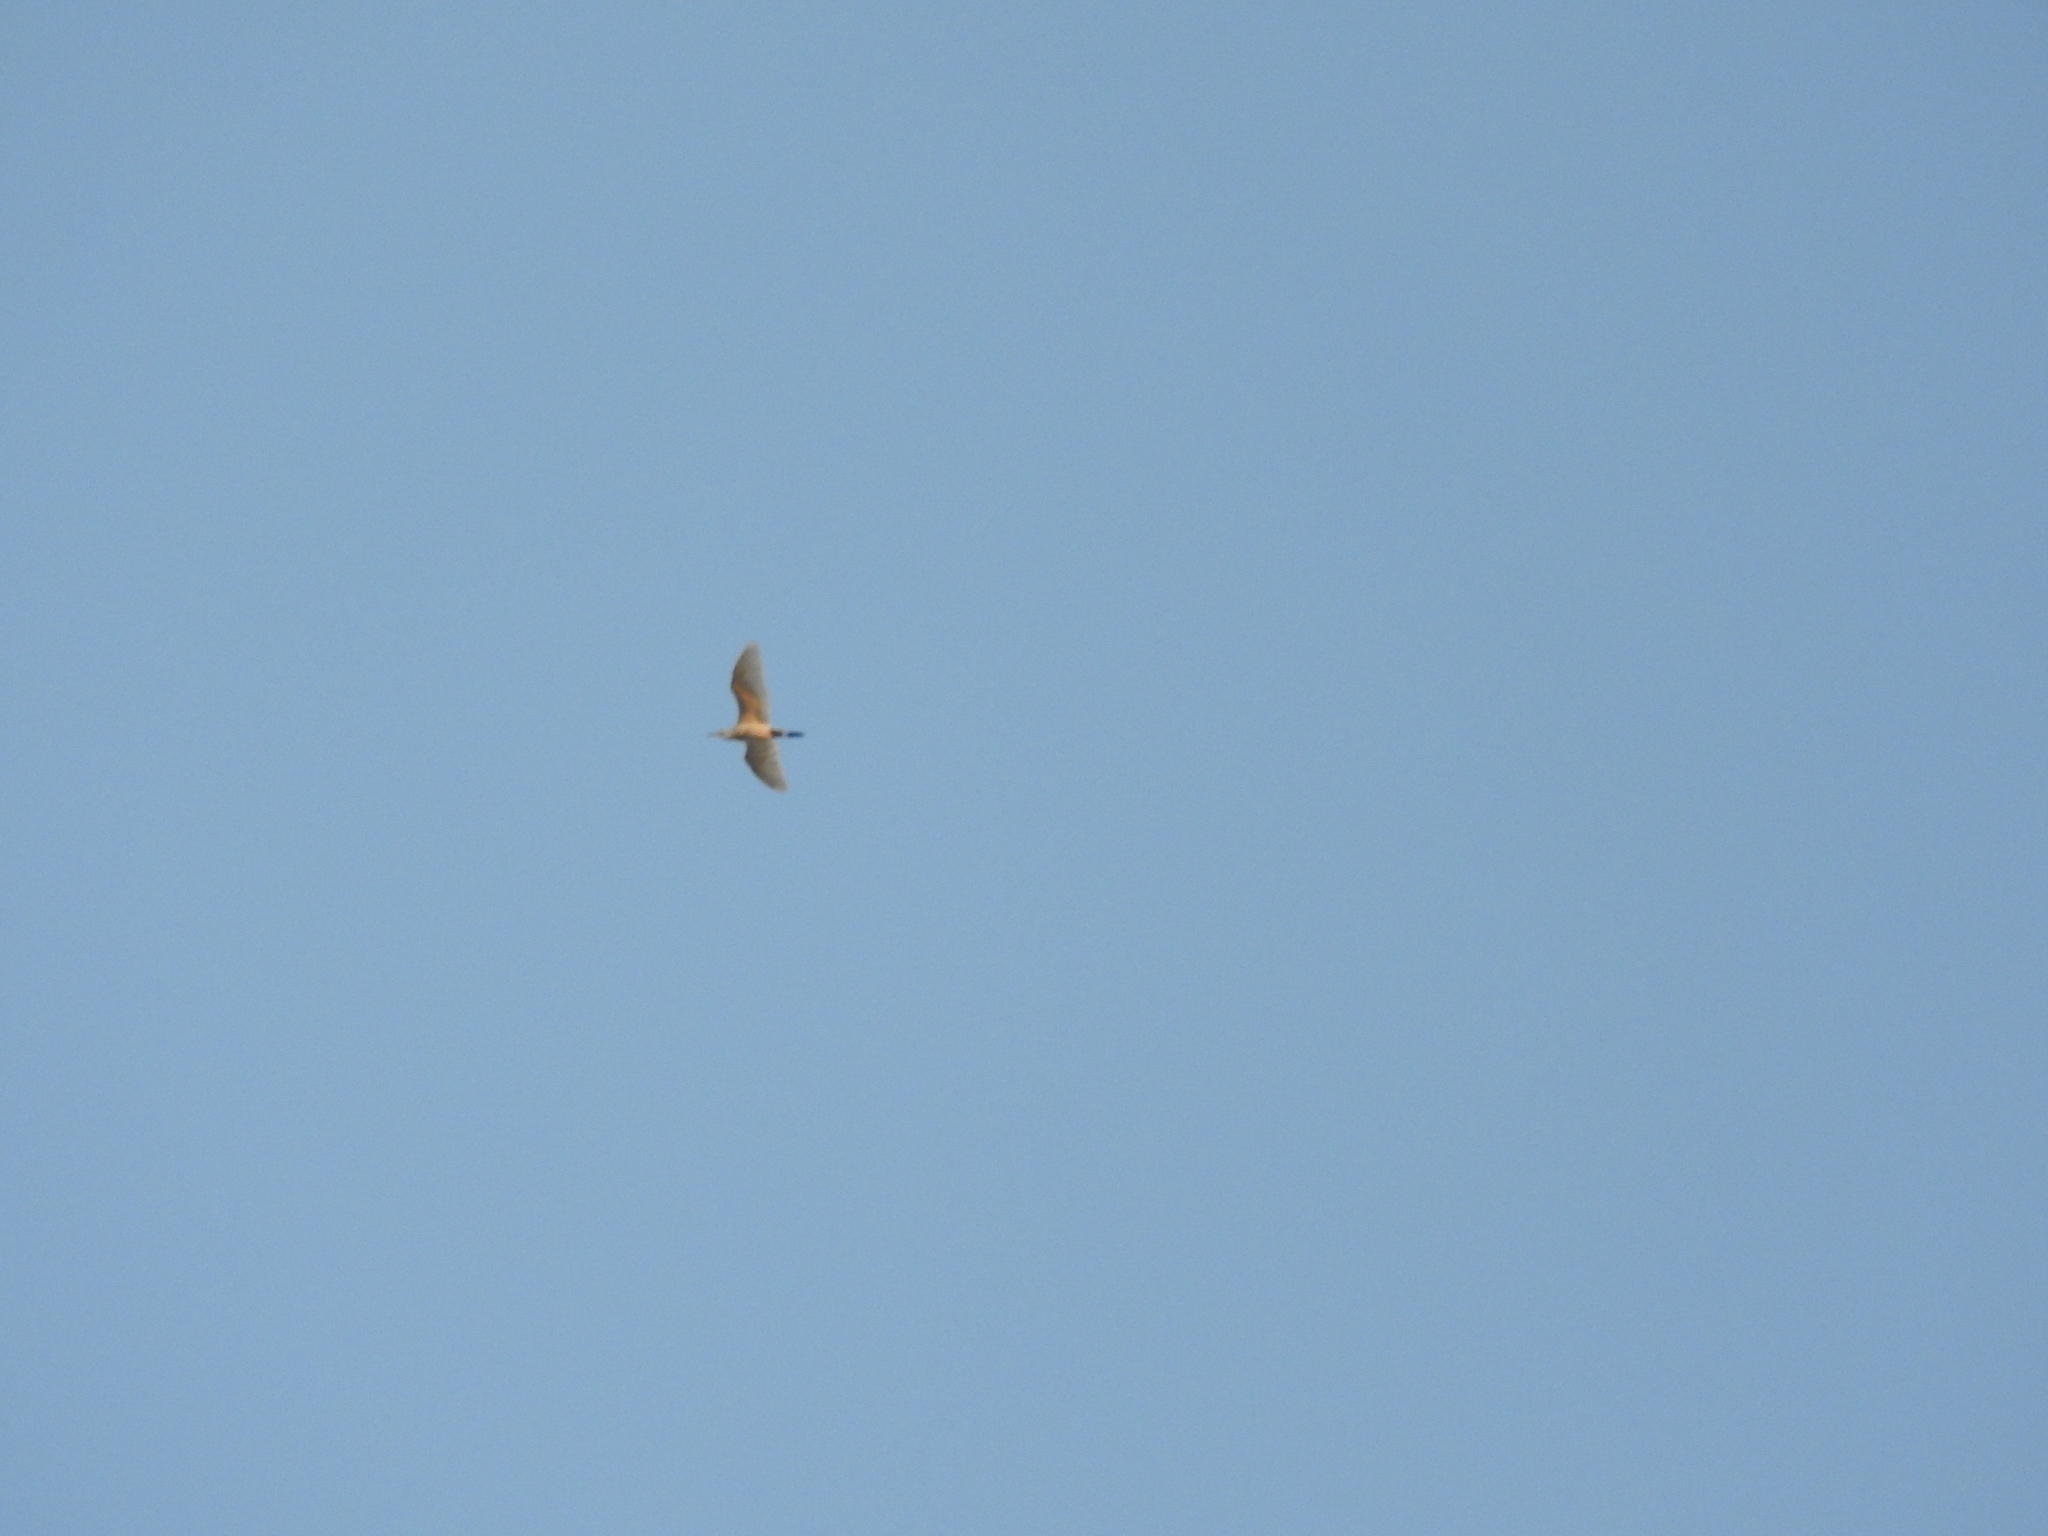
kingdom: Animalia
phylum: Chordata
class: Aves
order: Pelecaniformes
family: Ardeidae
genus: Bubulcus
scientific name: Bubulcus ibis
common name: Cattle egret
